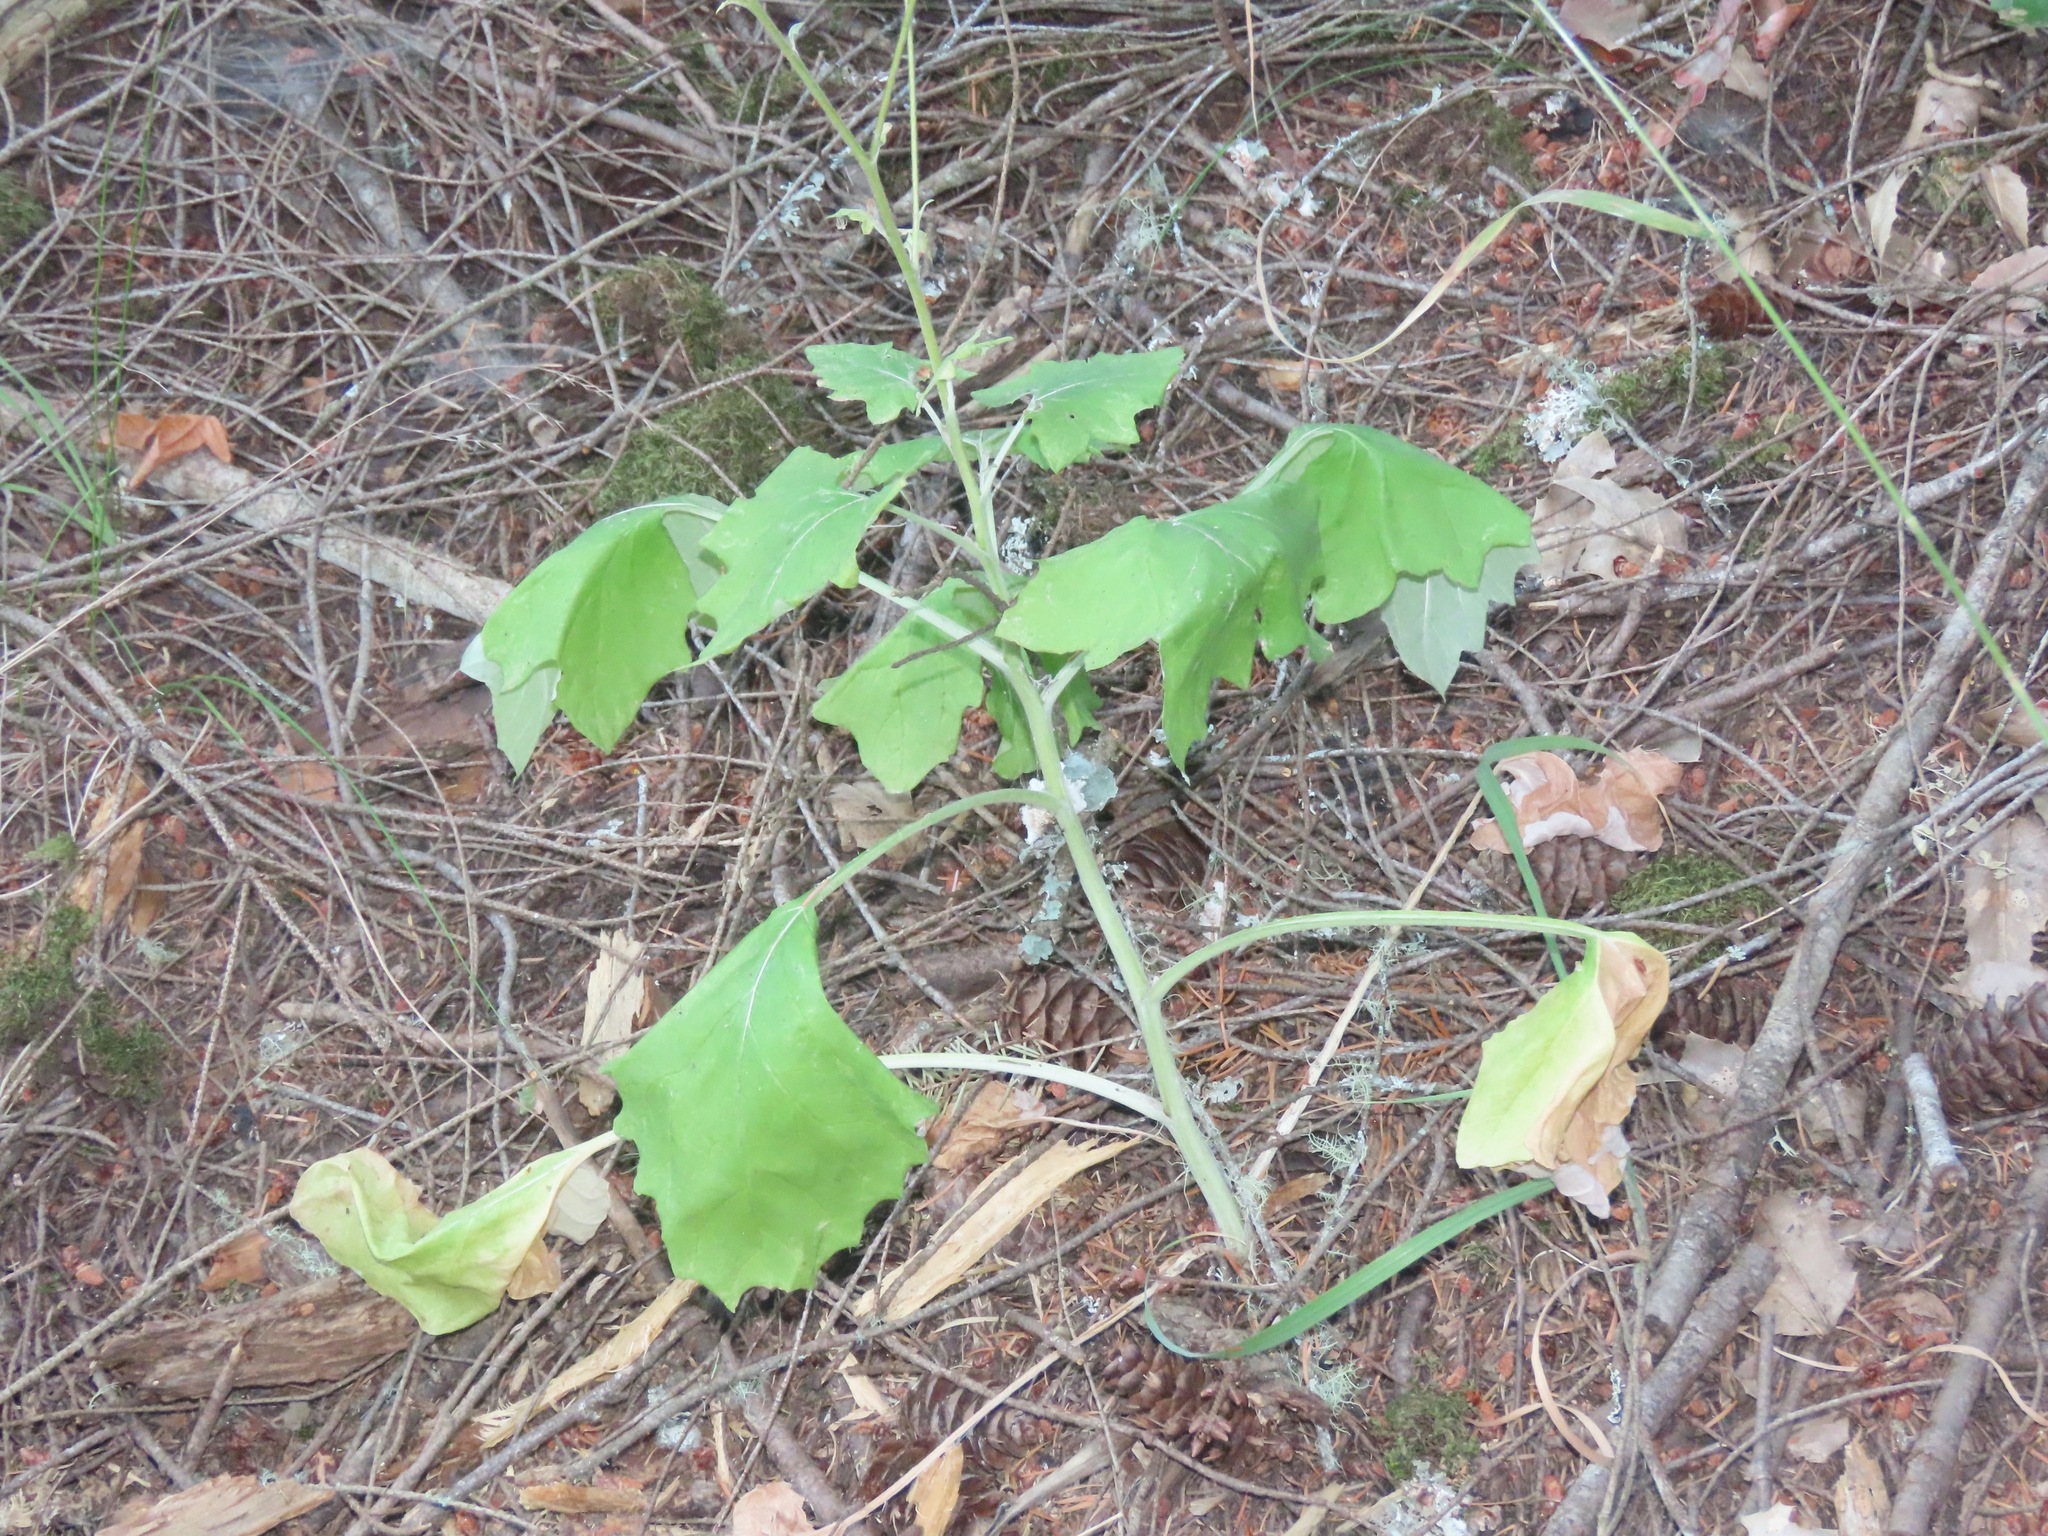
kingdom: Plantae
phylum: Tracheophyta
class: Magnoliopsida
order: Asterales
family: Asteraceae
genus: Adenocaulon
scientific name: Adenocaulon bicolor
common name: Trailplant
